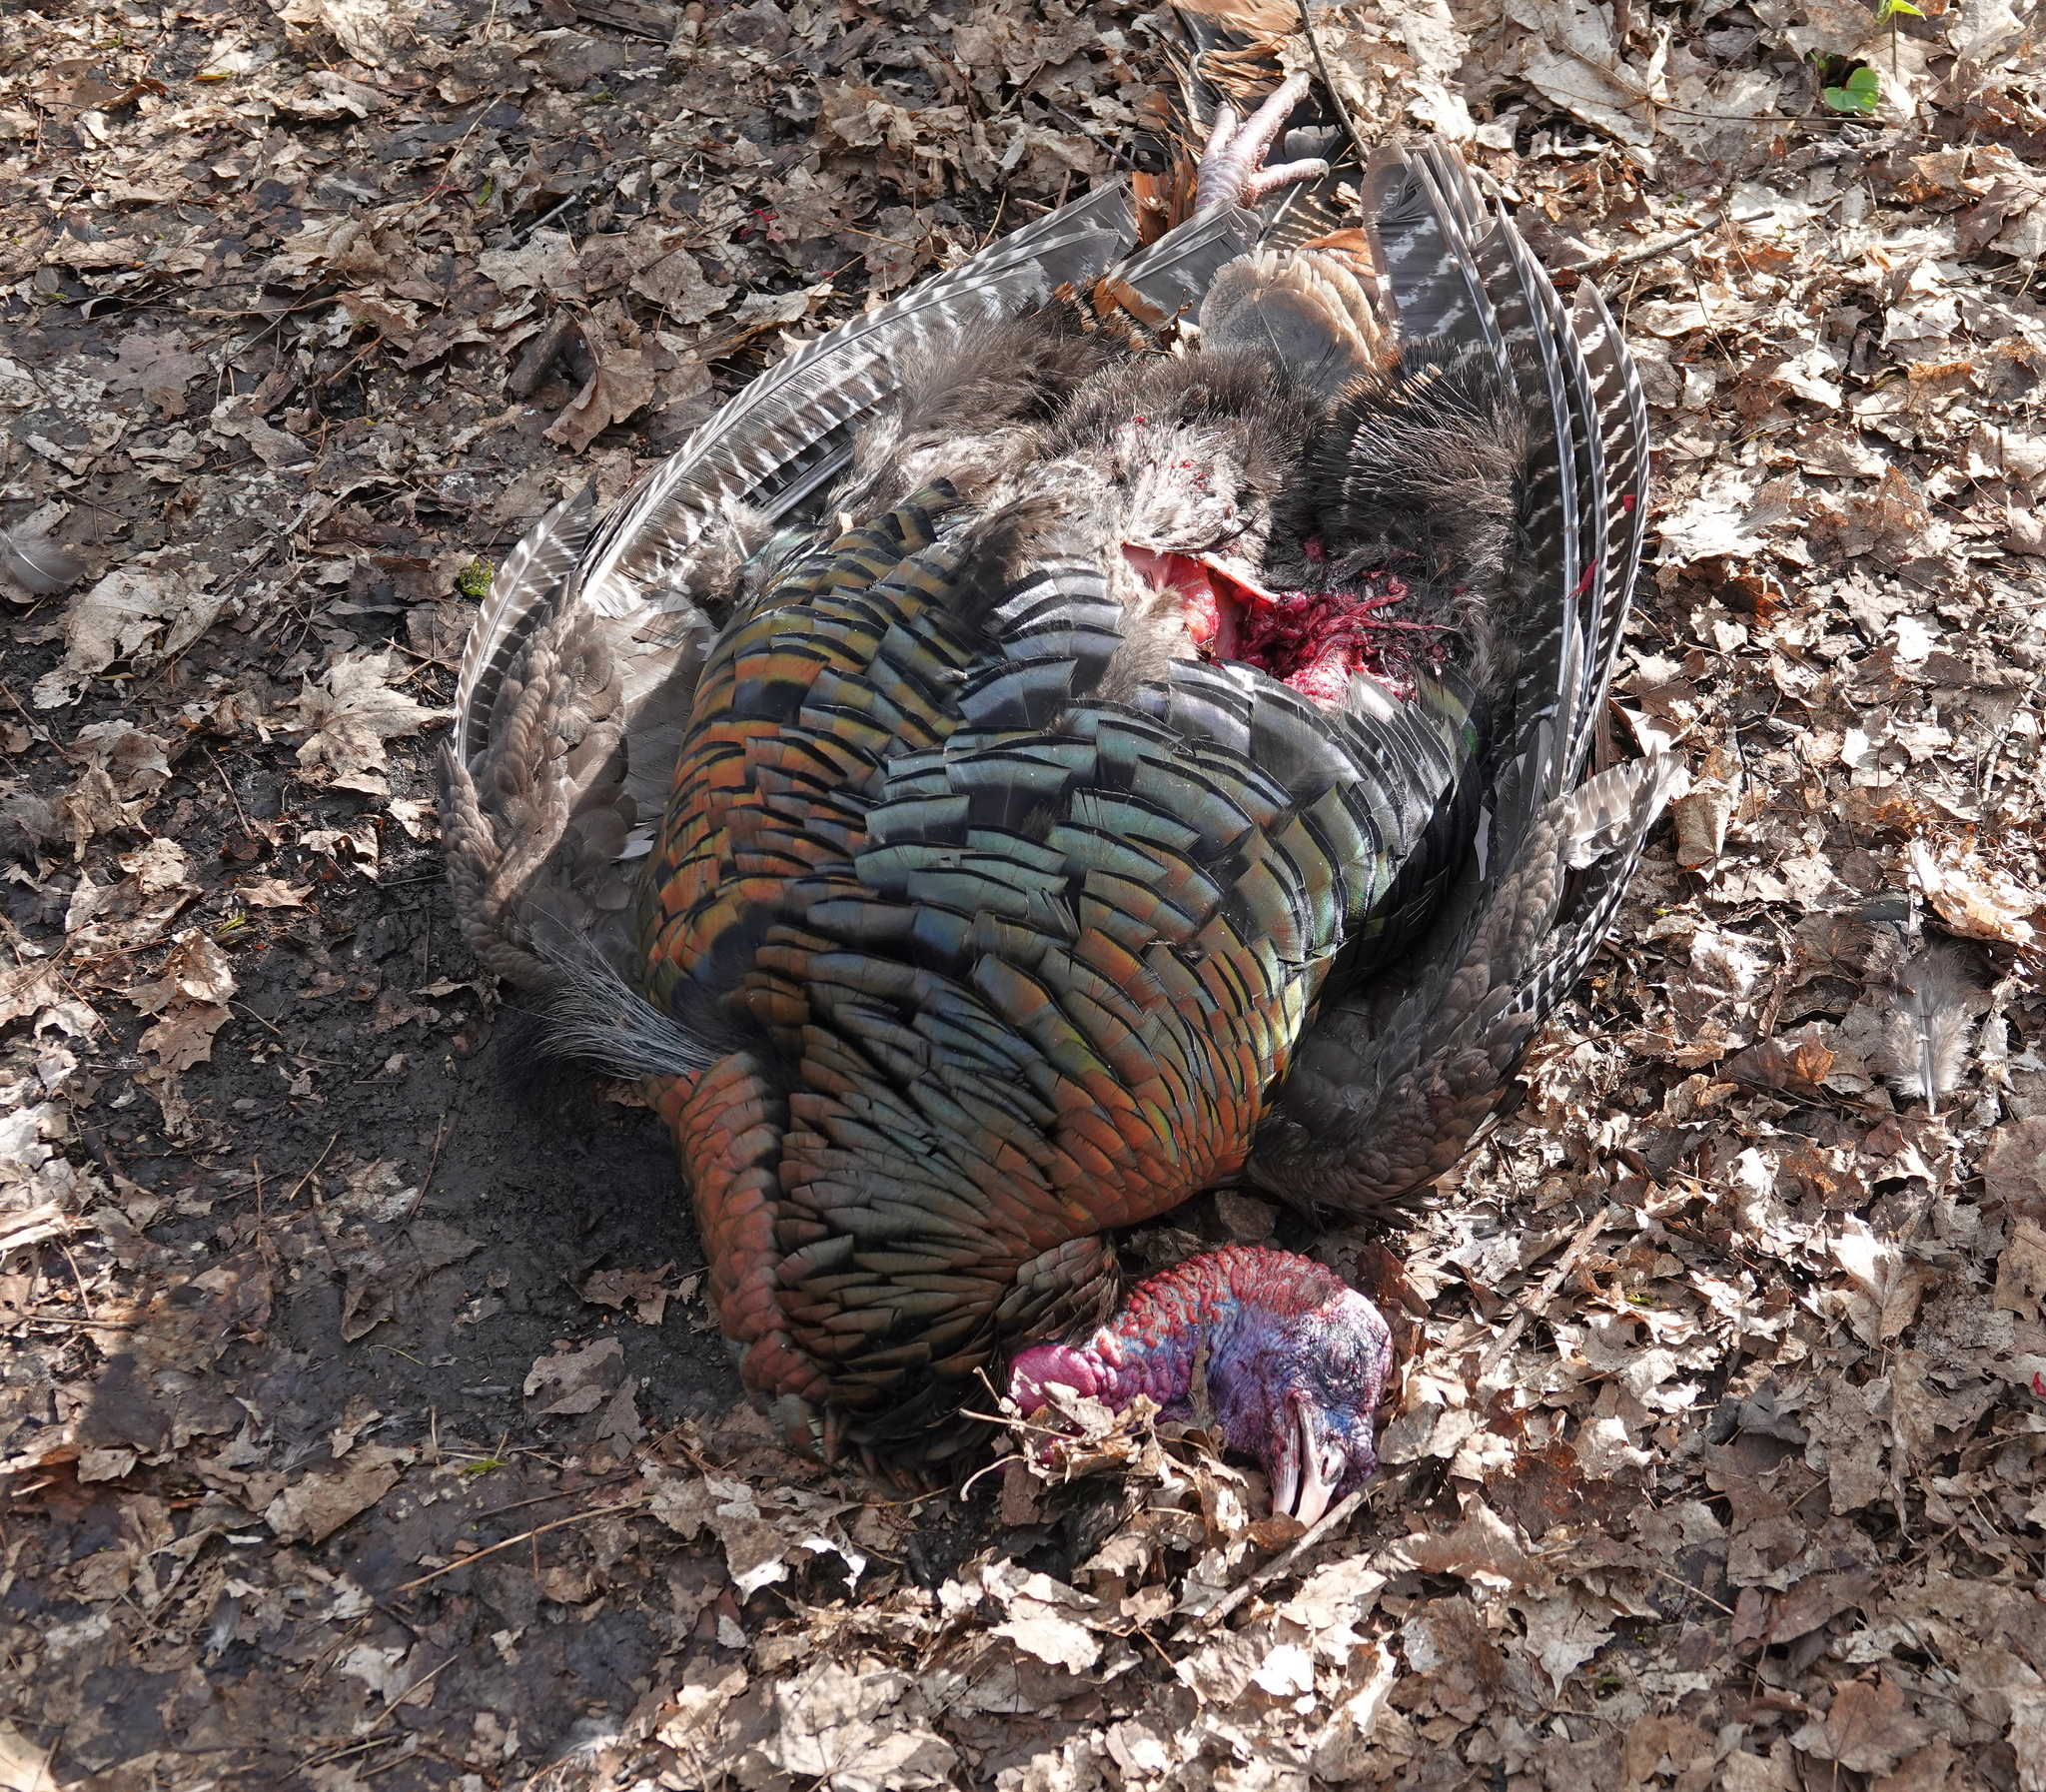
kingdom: Animalia
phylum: Chordata
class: Aves
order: Galliformes
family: Phasianidae
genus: Meleagris
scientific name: Meleagris gallopavo
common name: Wild turkey
